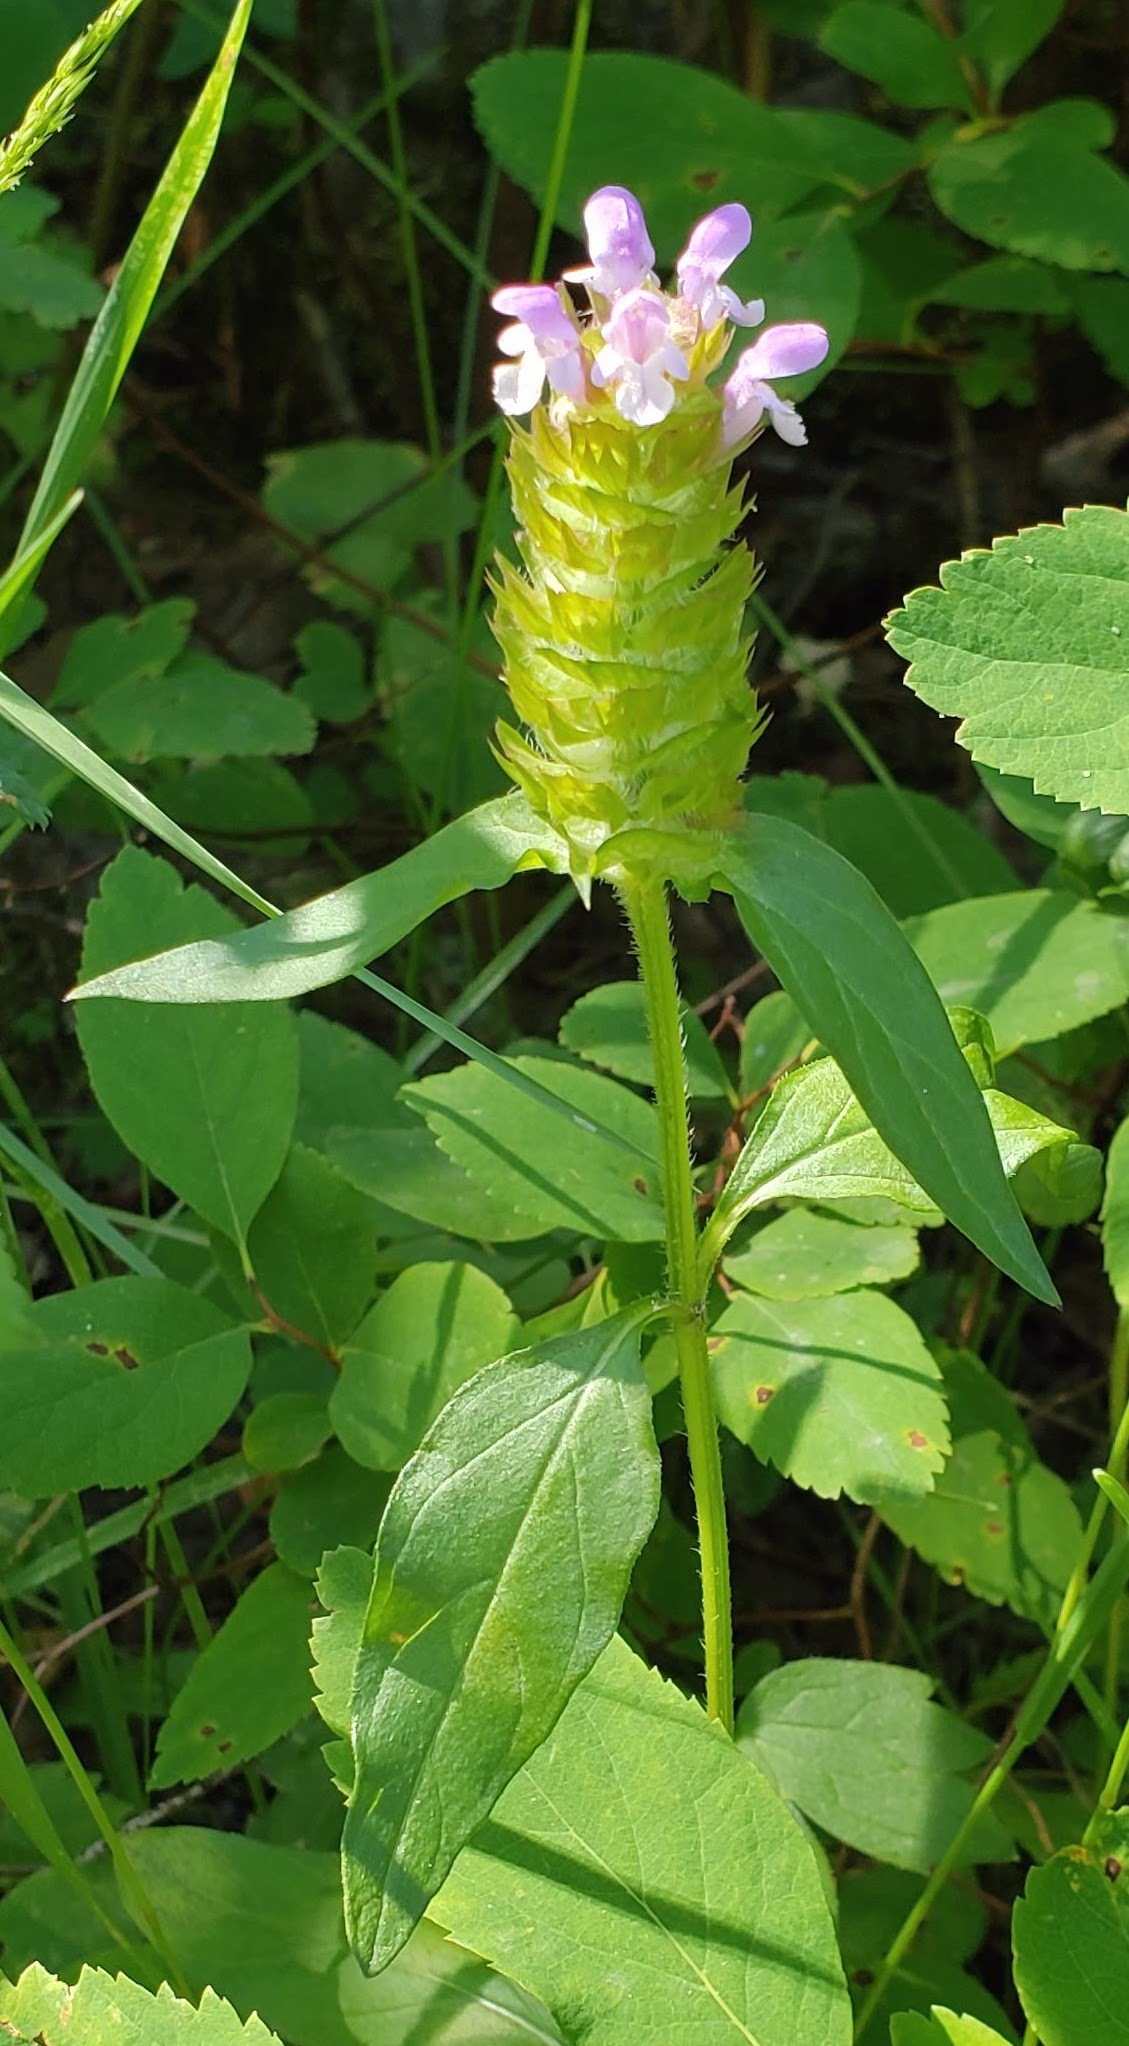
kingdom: Plantae
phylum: Tracheophyta
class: Magnoliopsida
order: Lamiales
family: Lamiaceae
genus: Prunella
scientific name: Prunella vulgaris
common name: Heal-all
